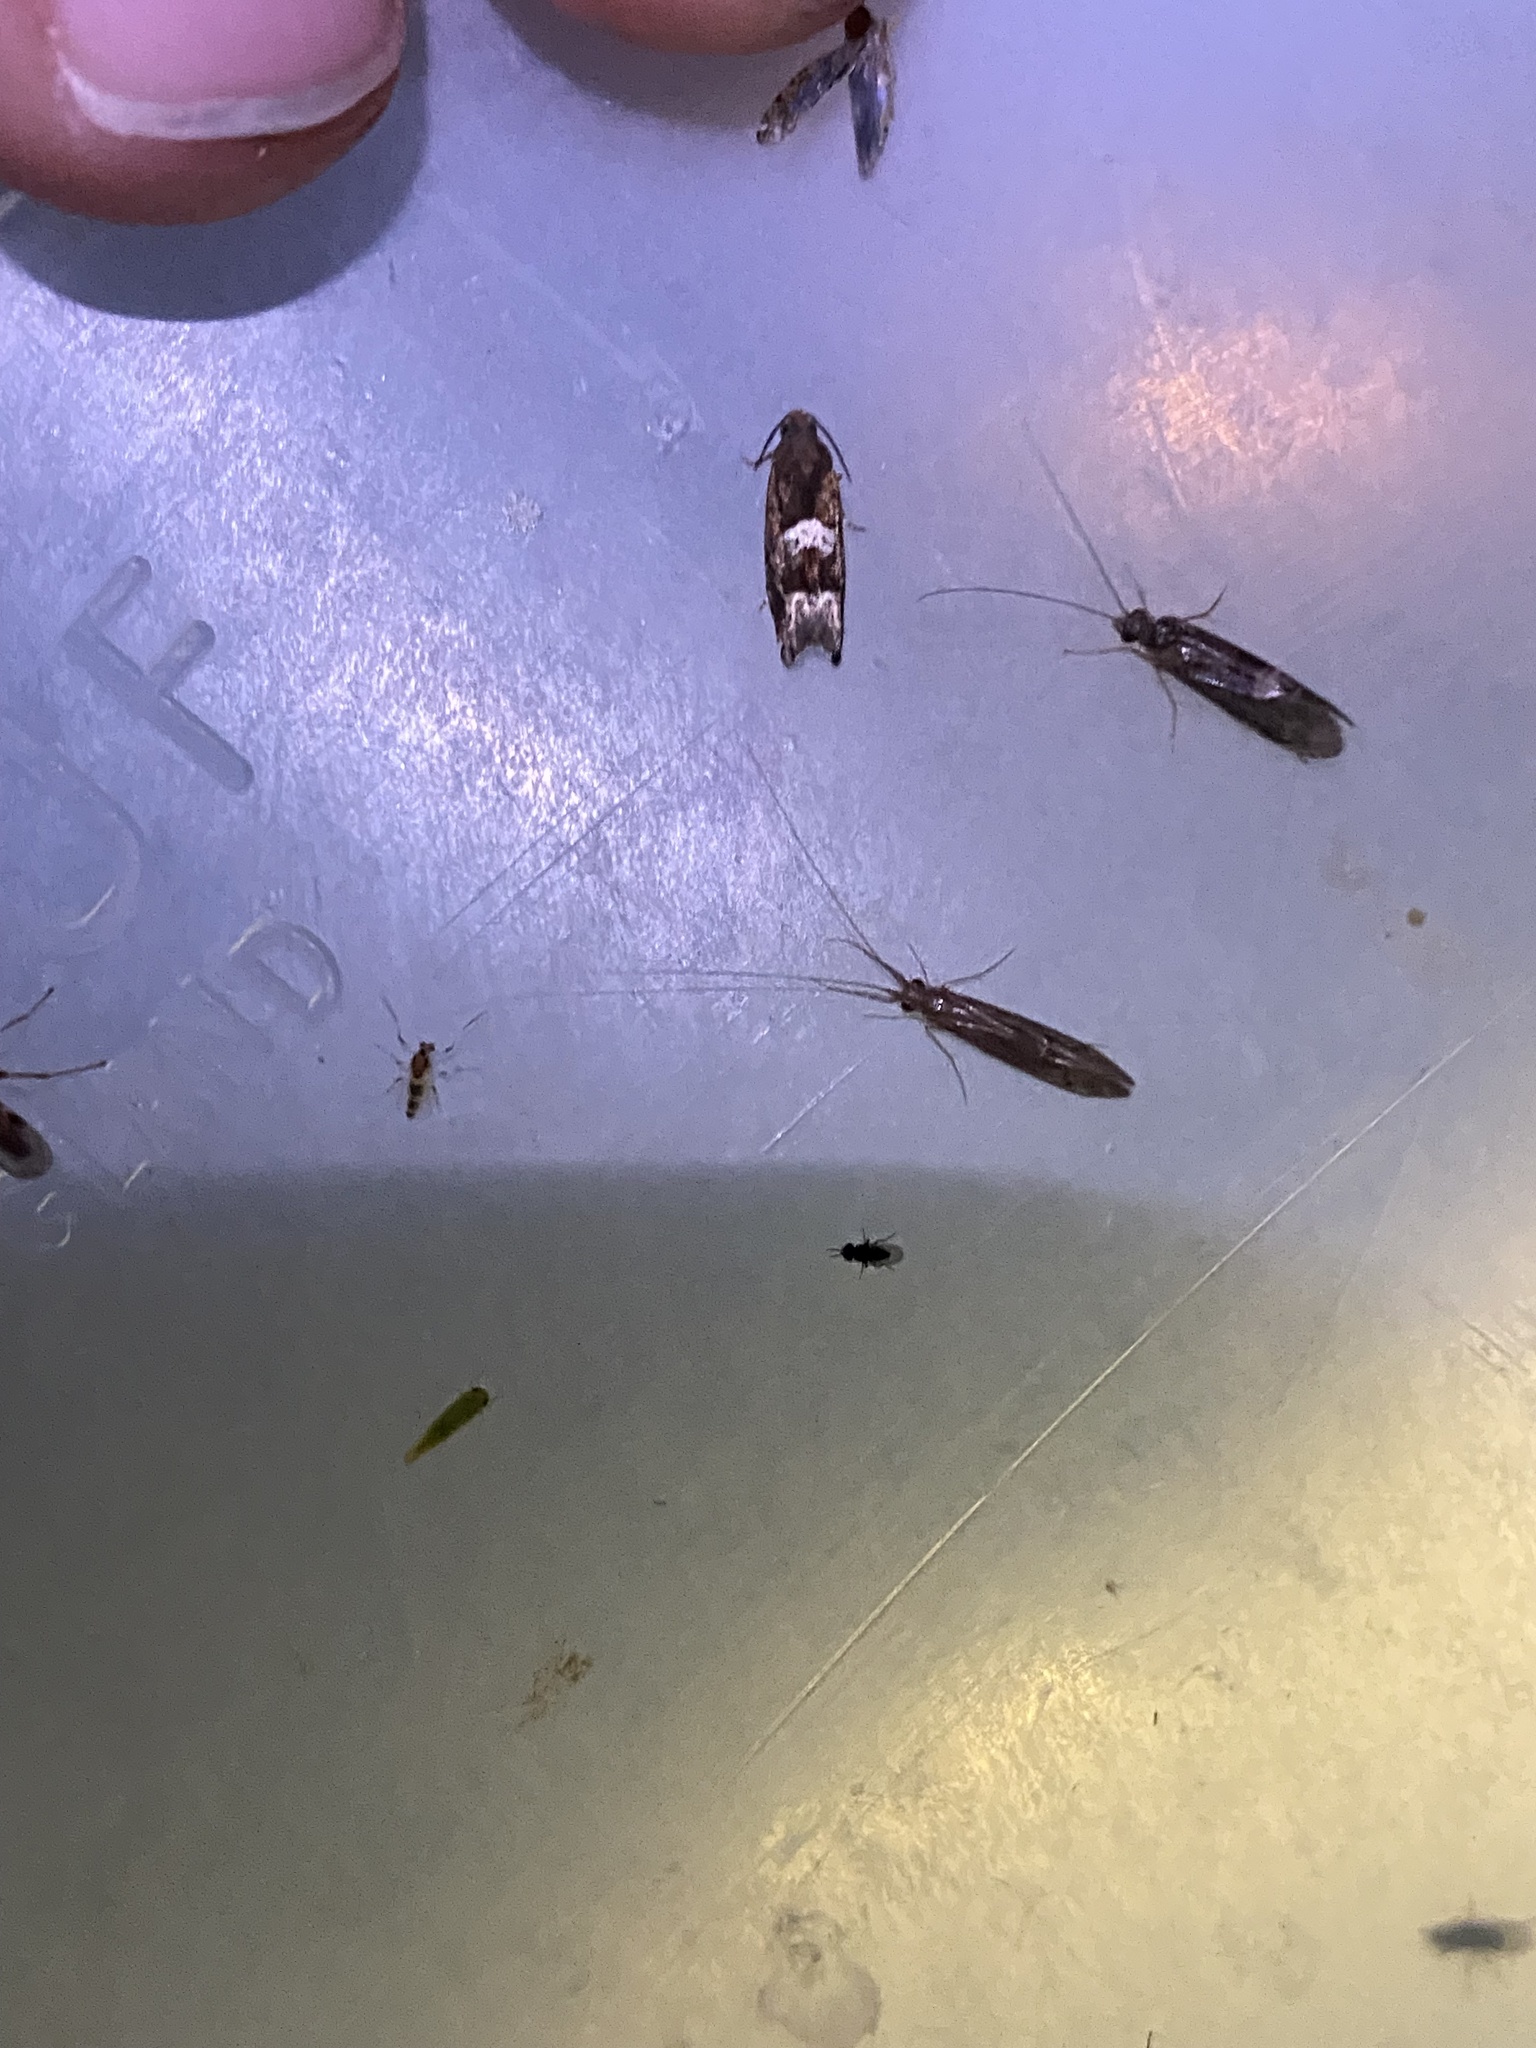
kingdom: Animalia
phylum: Arthropoda
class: Insecta
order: Lepidoptera
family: Tortricidae
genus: Eucosma
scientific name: Eucosma parmatana
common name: Aster eucosma moth
